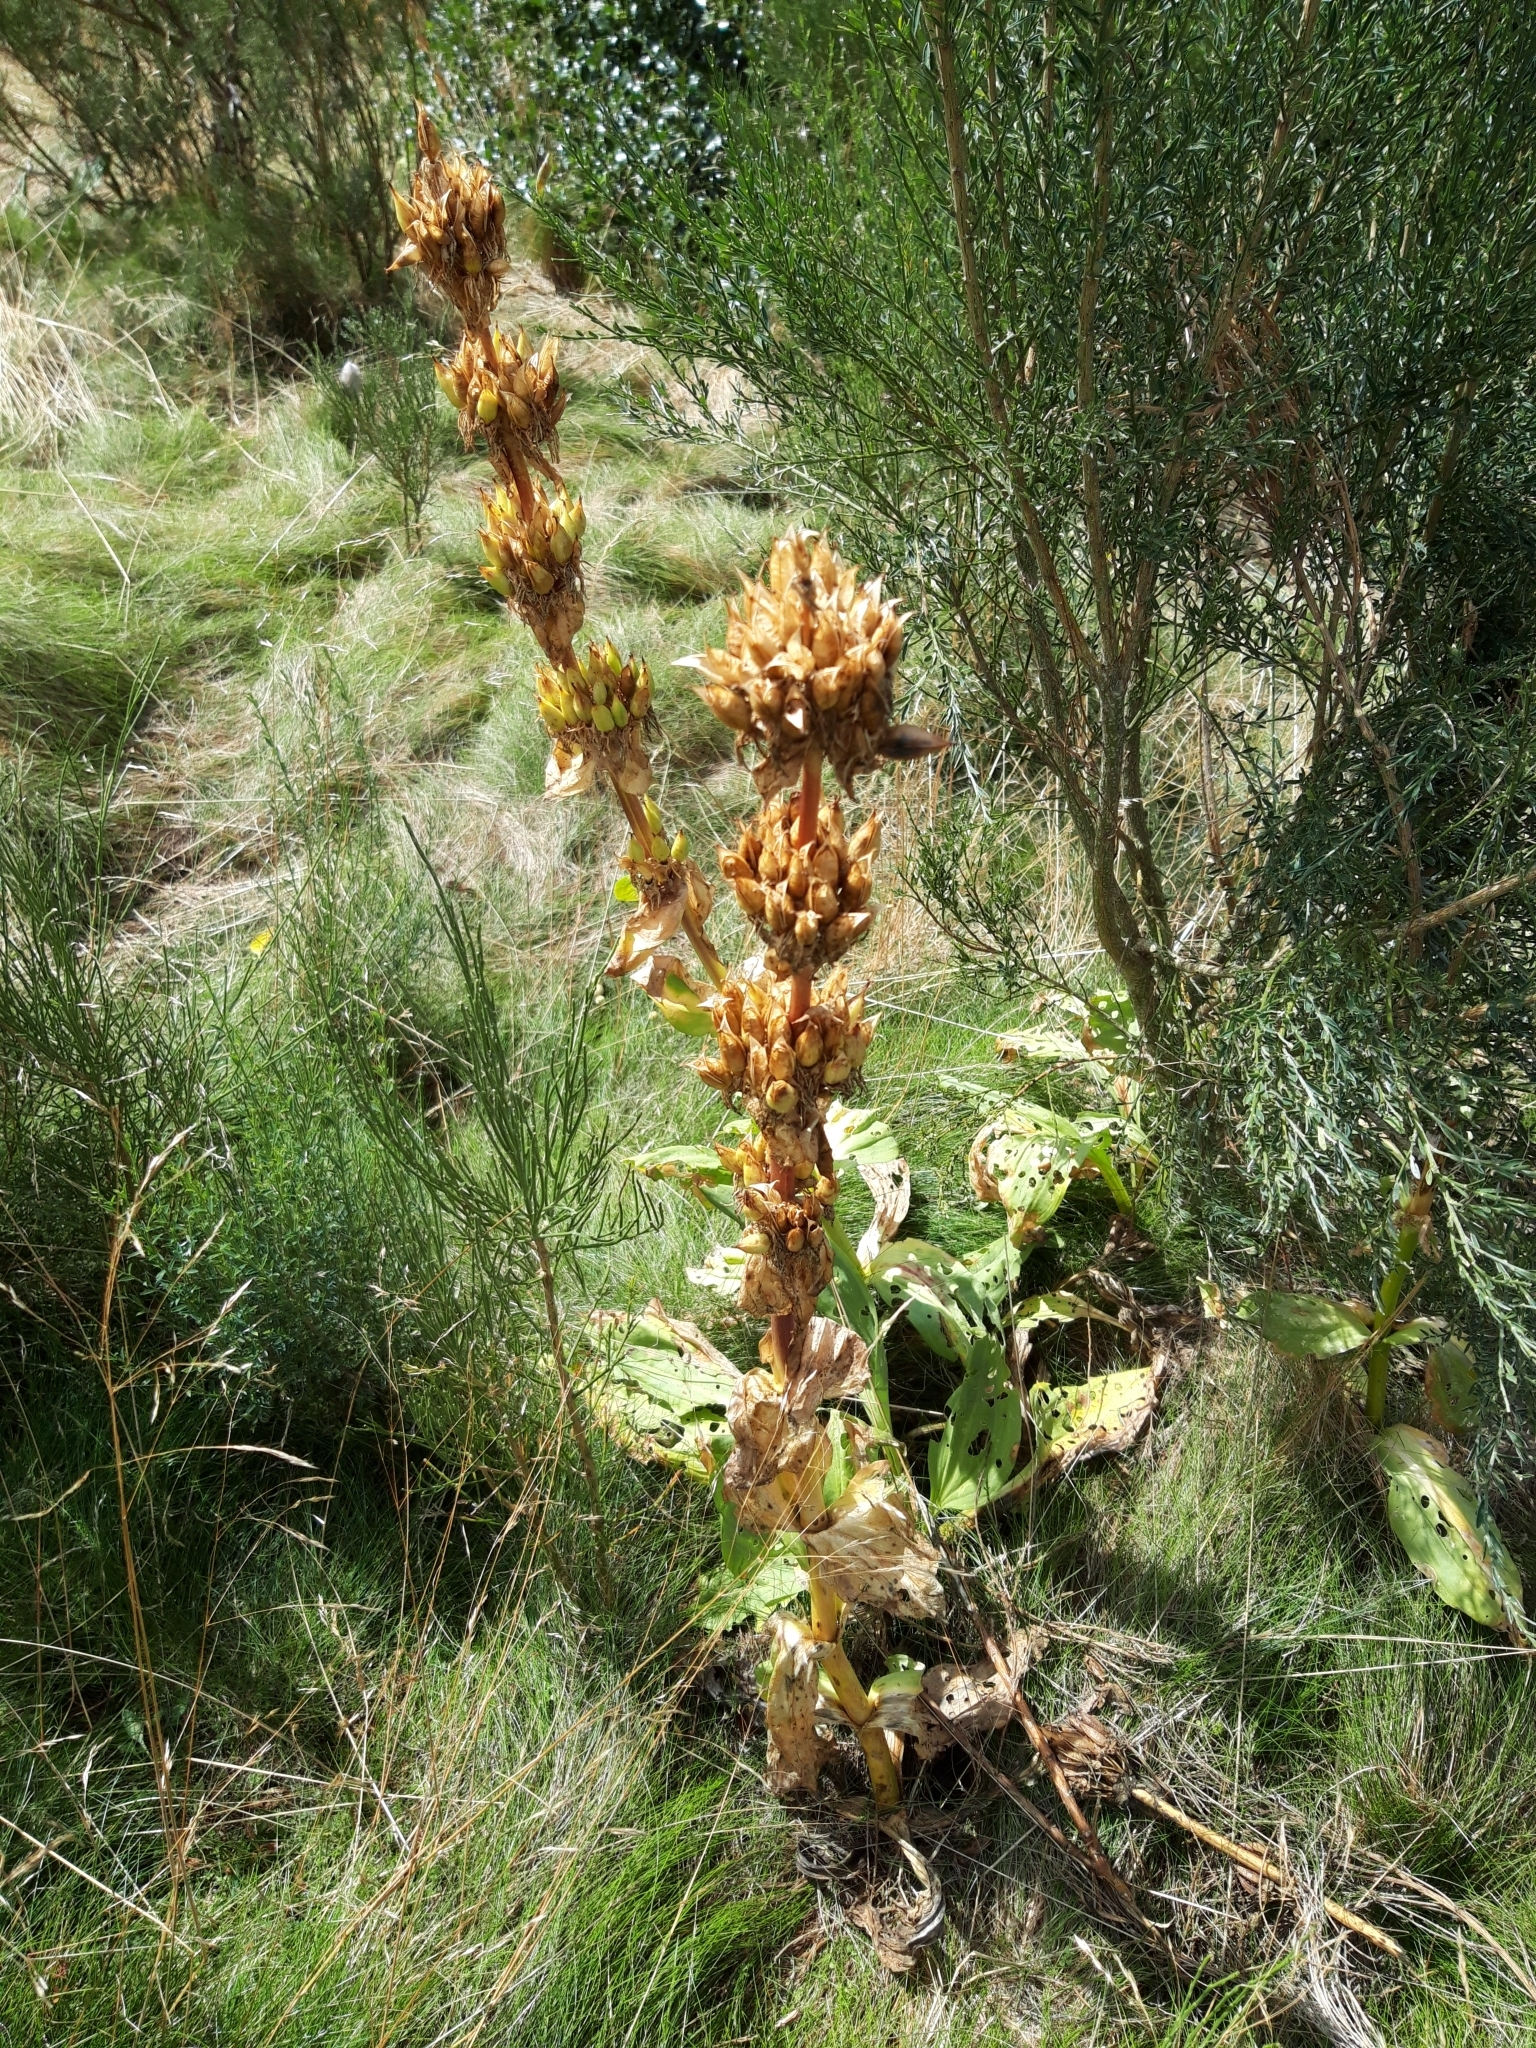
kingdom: Plantae
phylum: Tracheophyta
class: Magnoliopsida
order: Gentianales
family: Gentianaceae
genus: Gentiana
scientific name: Gentiana lutea
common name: Great yellow gentian
